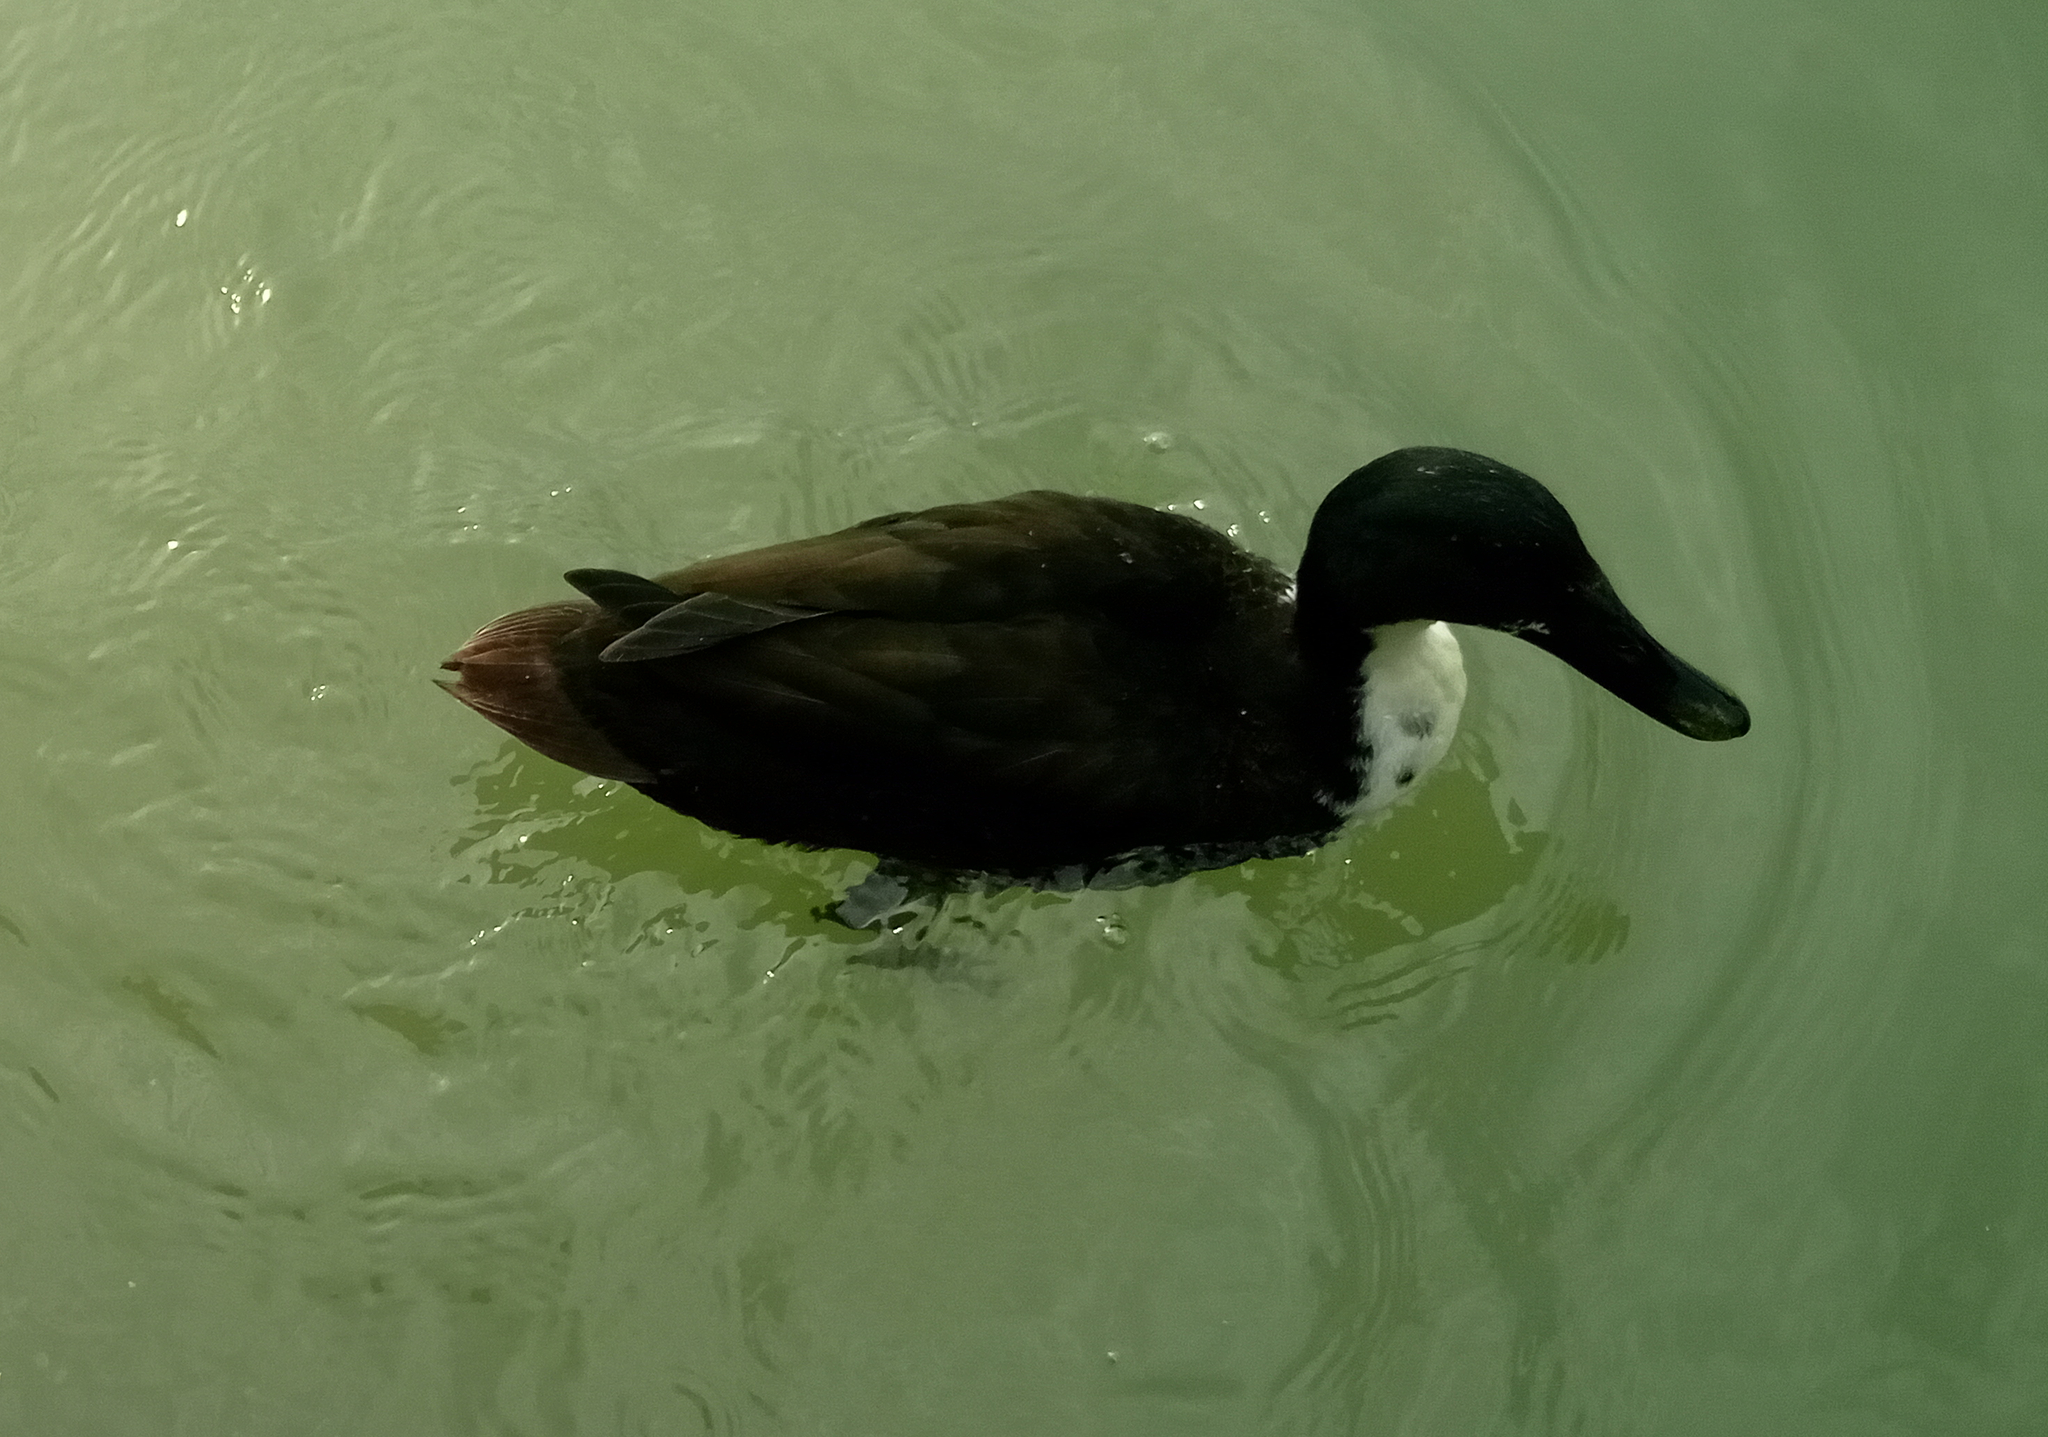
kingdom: Animalia
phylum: Chordata
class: Aves
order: Anseriformes
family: Anatidae
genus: Anas
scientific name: Anas platyrhynchos
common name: Mallard
